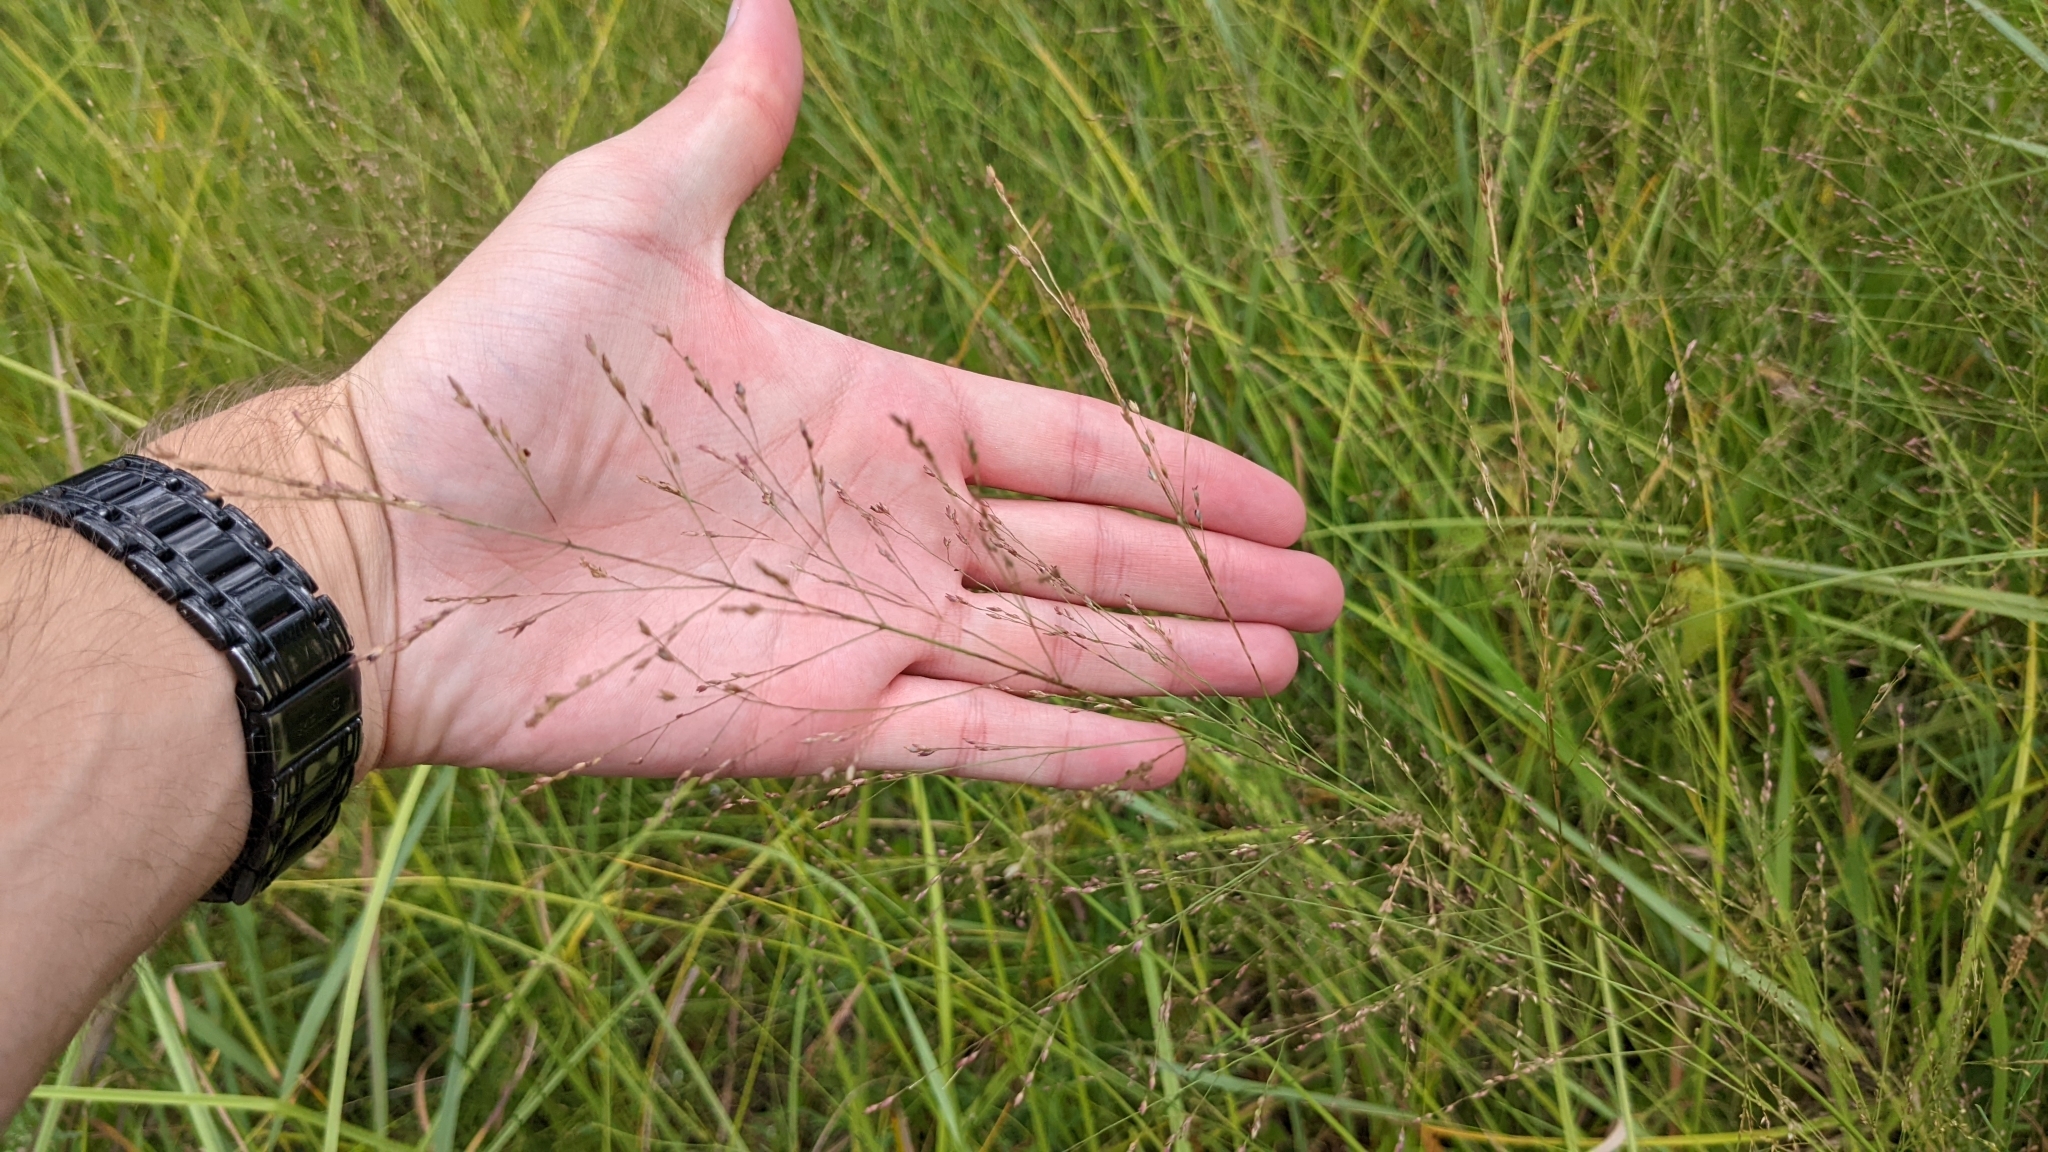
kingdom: Plantae
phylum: Tracheophyta
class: Liliopsida
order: Poales
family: Poaceae
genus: Panicum
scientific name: Panicum virgatum
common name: Switchgrass
